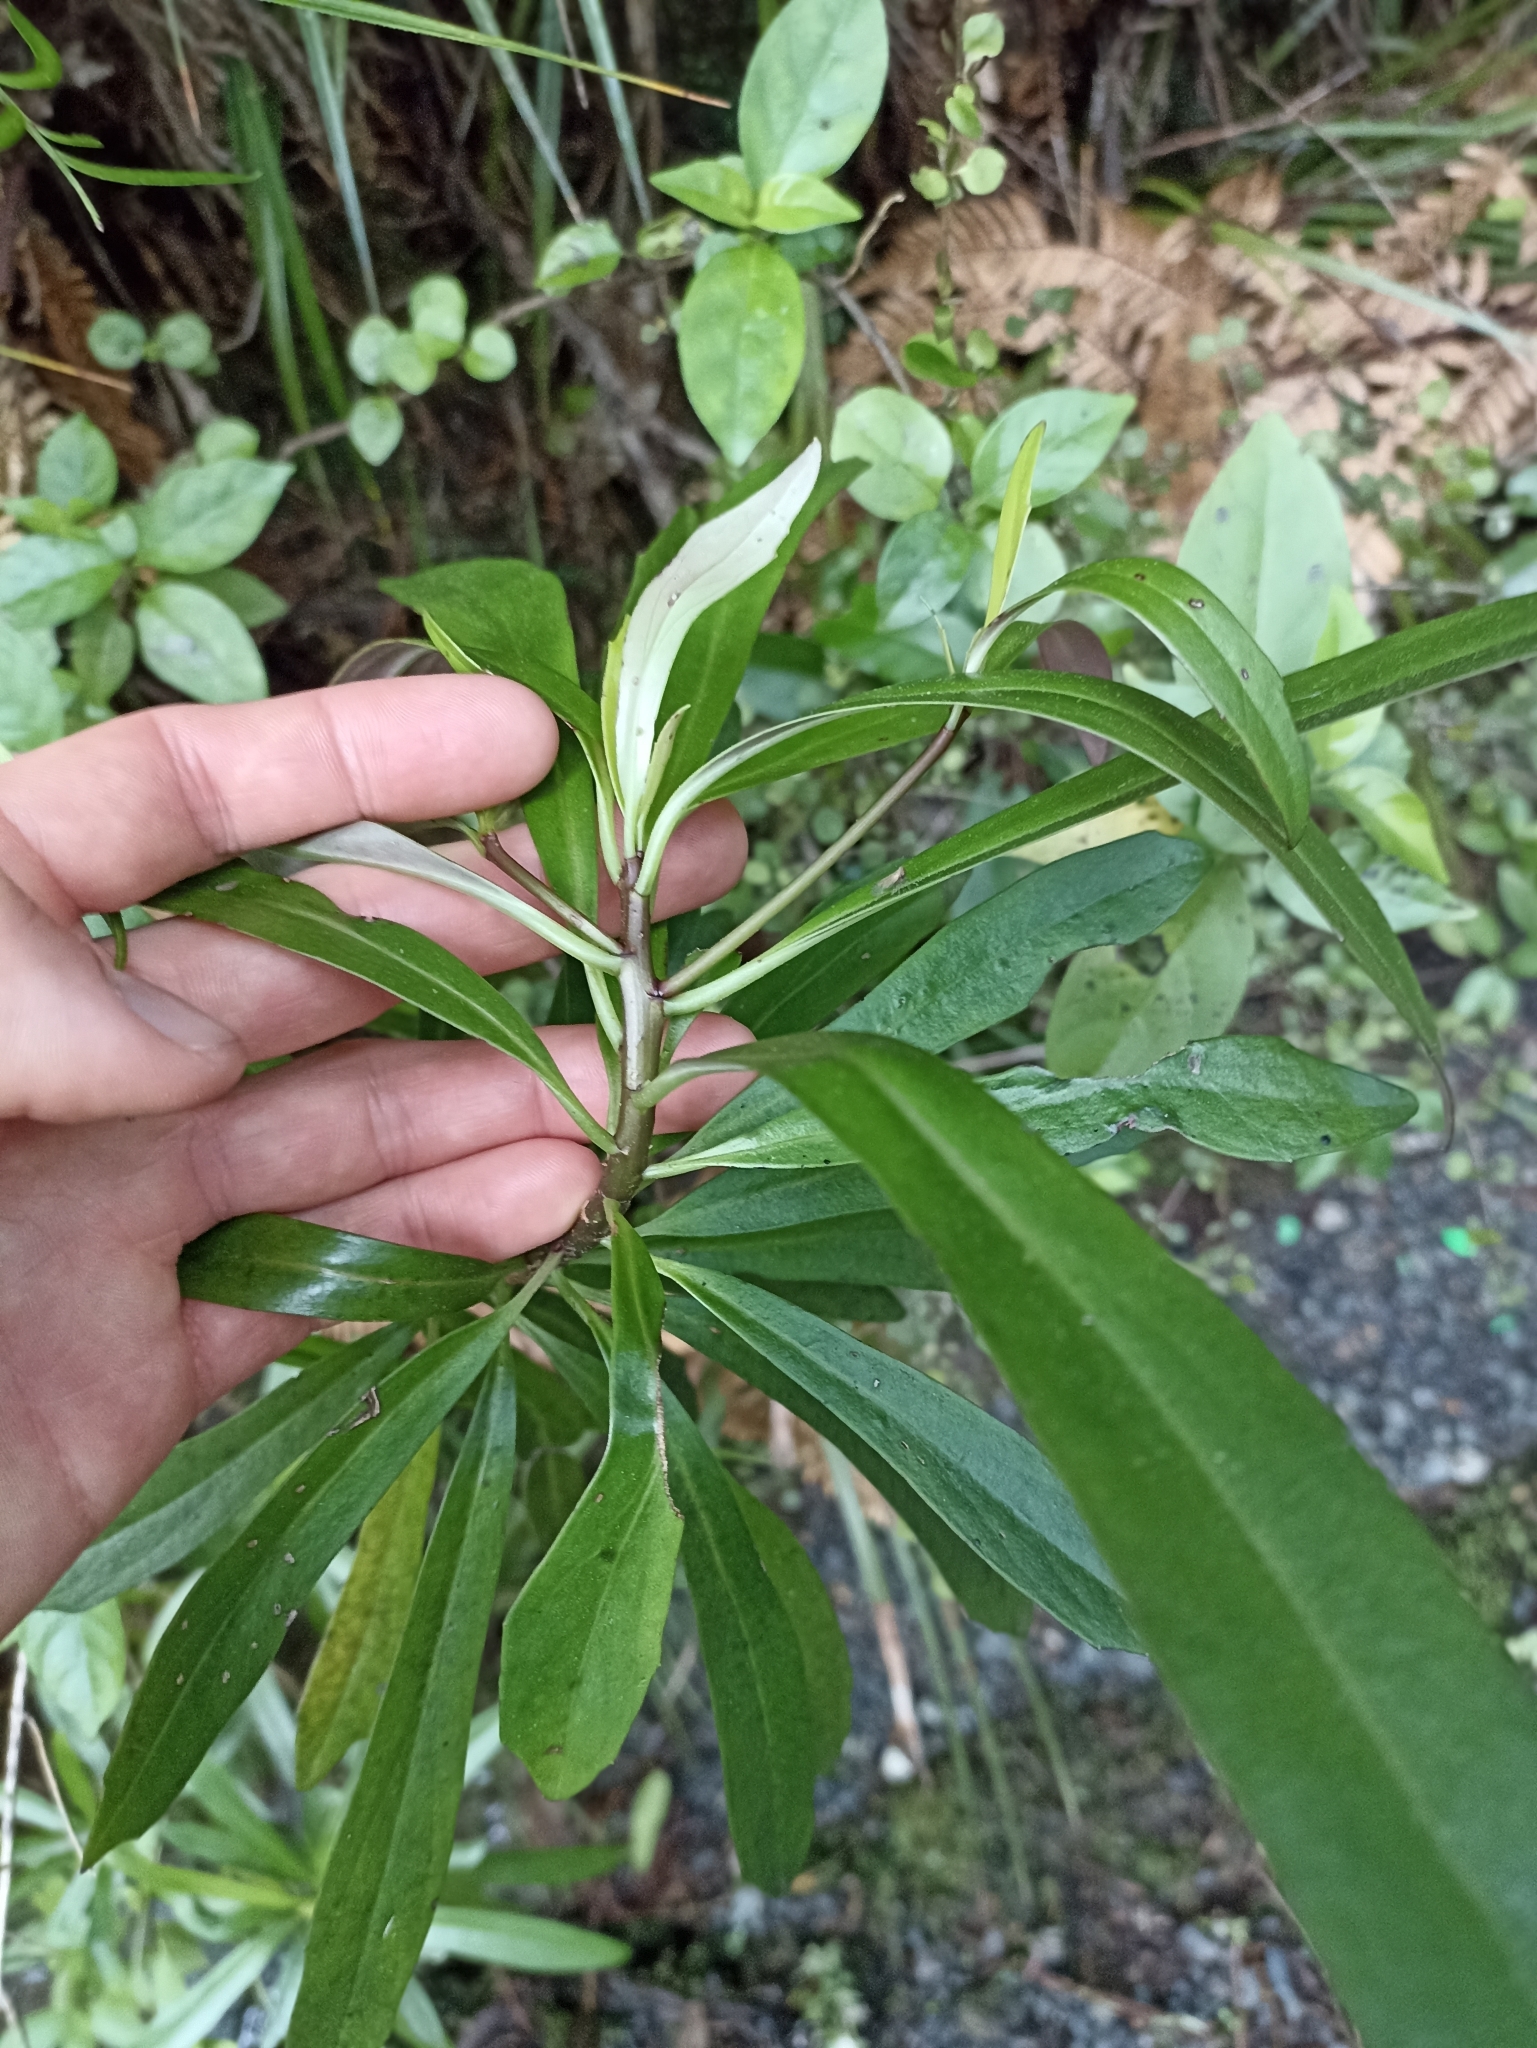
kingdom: Plantae
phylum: Tracheophyta
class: Magnoliopsida
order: Asterales
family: Asteraceae
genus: Brachyglottis
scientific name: Brachyglottis kirkii
